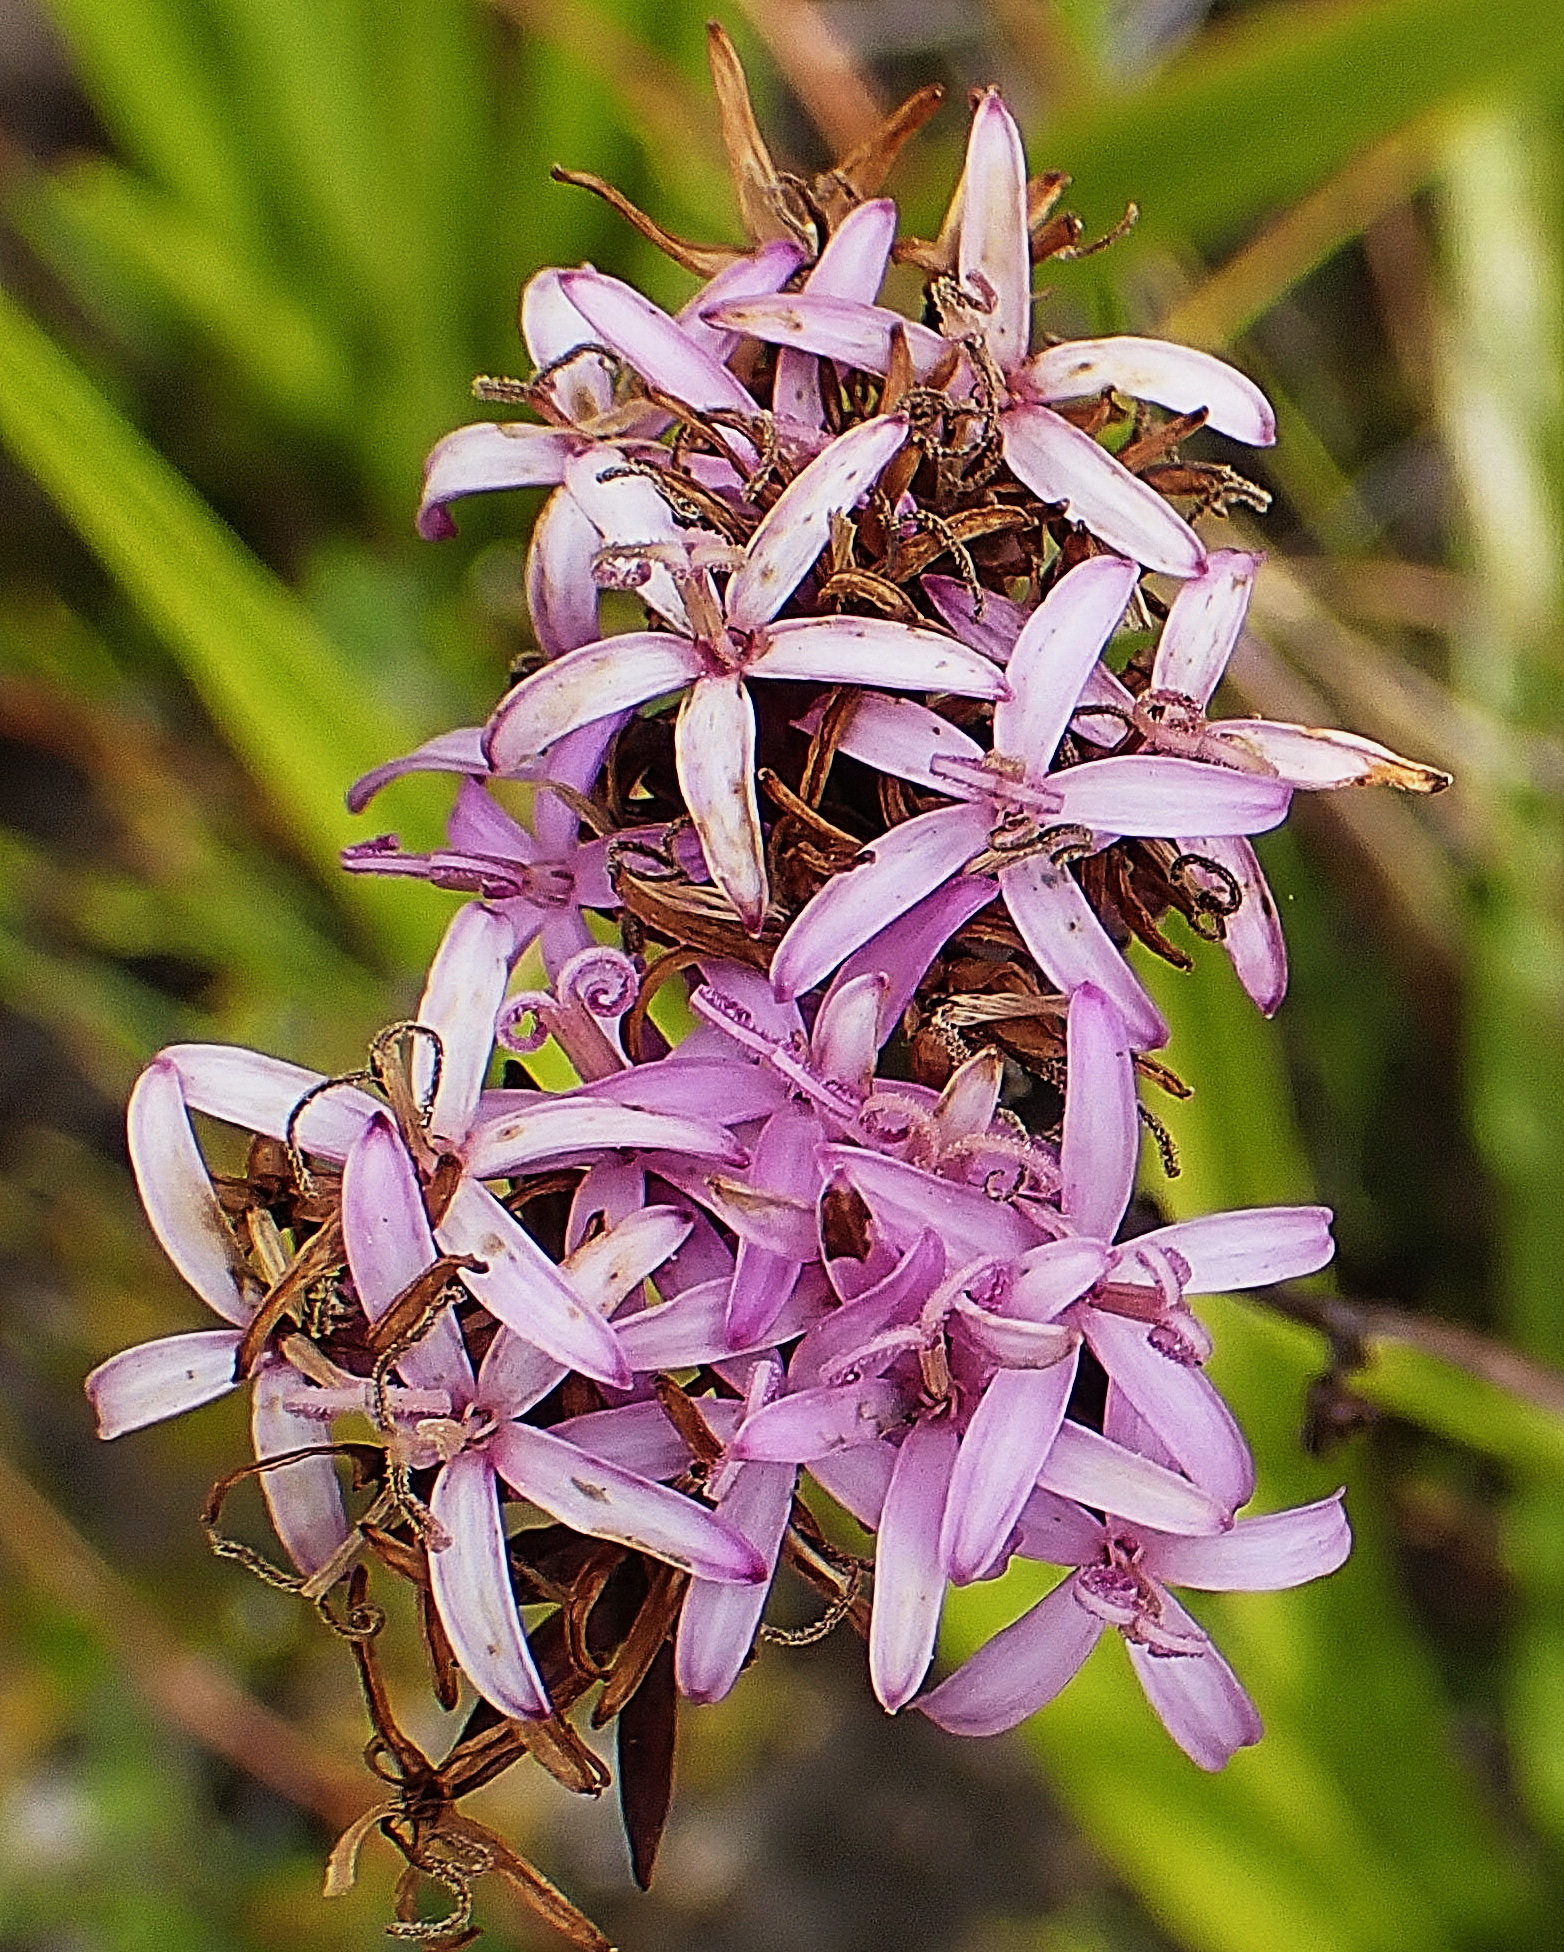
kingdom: Plantae
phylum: Tracheophyta
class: Magnoliopsida
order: Asterales
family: Asteraceae
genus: Corymbium
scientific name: Corymbium glabrum
